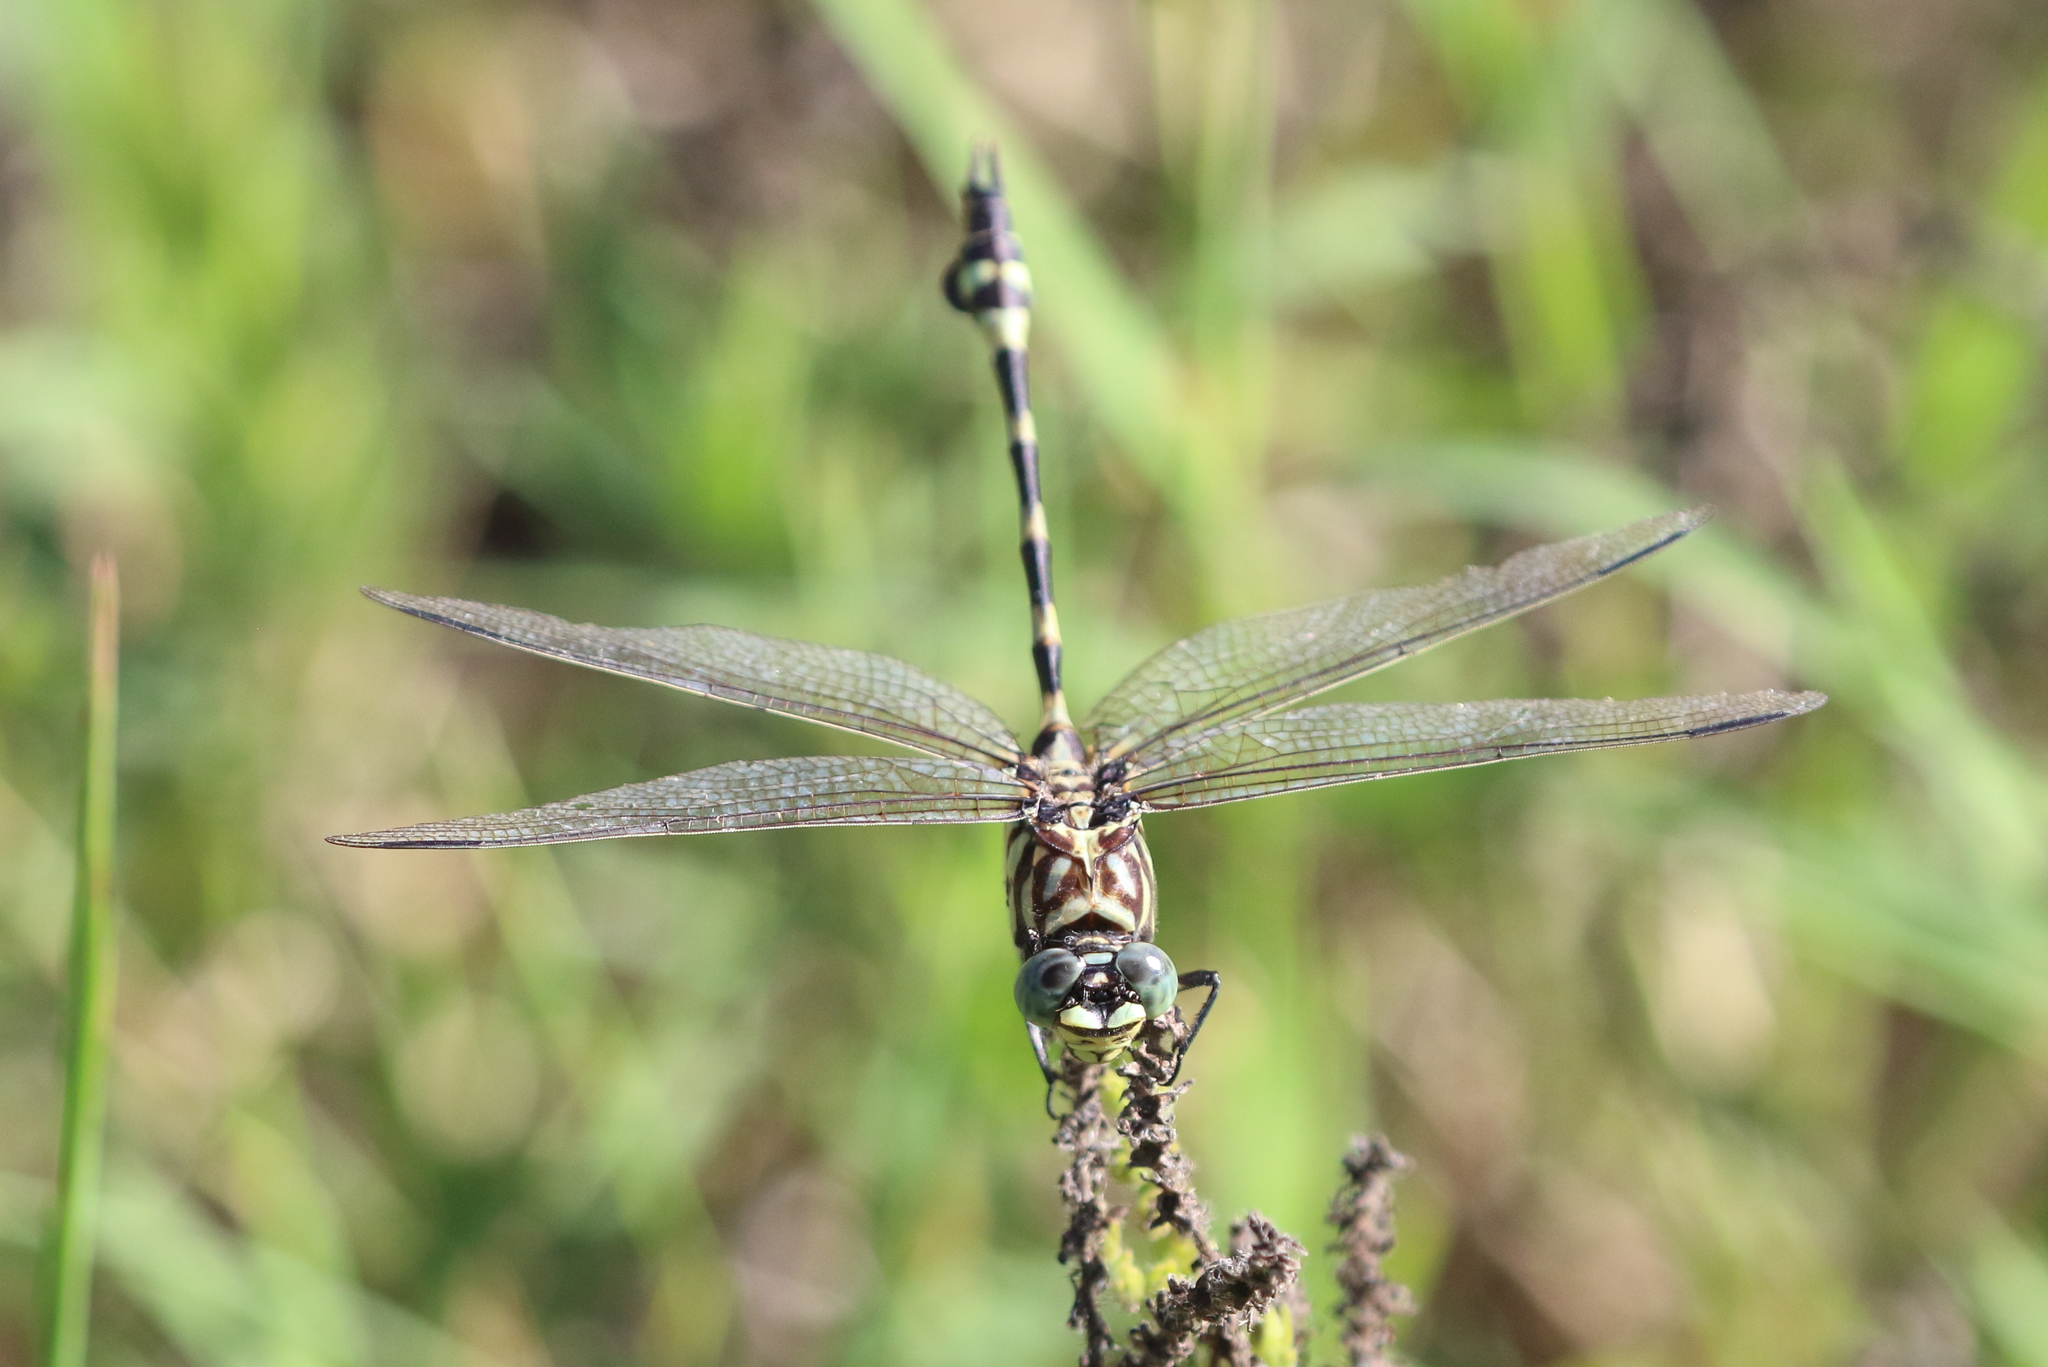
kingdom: Animalia
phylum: Arthropoda
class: Insecta
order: Odonata
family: Gomphidae
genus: Ictinogomphus
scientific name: Ictinogomphus australis
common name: Australian tiger
